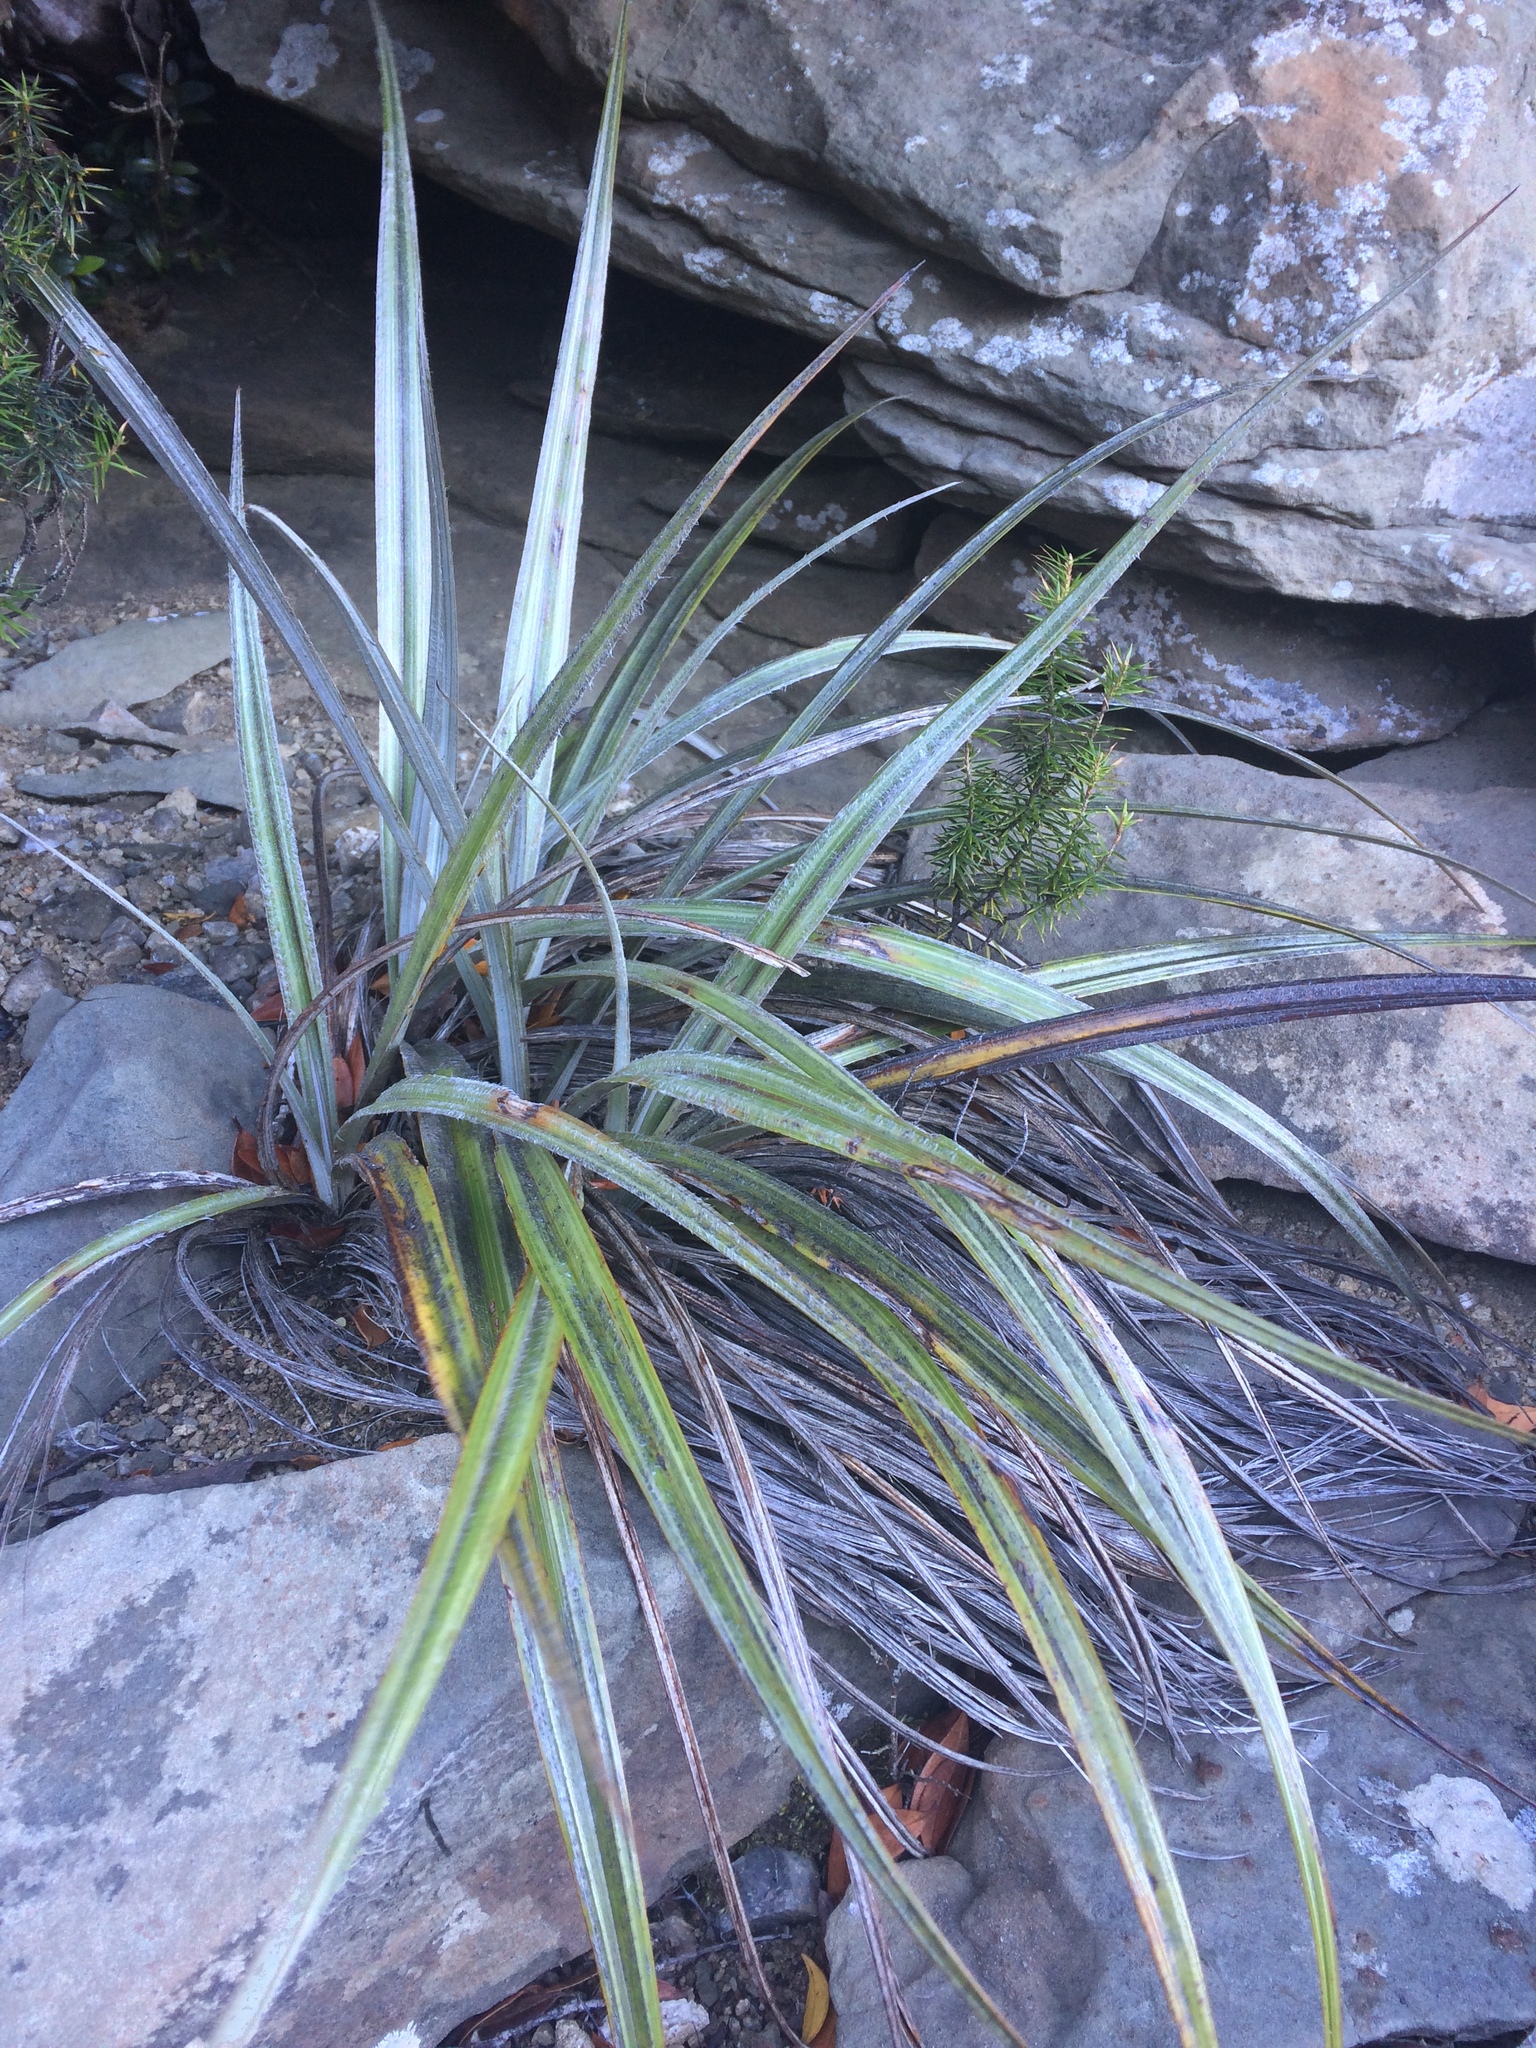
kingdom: Plantae
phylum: Tracheophyta
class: Liliopsida
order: Asparagales
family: Asteliaceae
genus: Astelia
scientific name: Astelia nervosa
